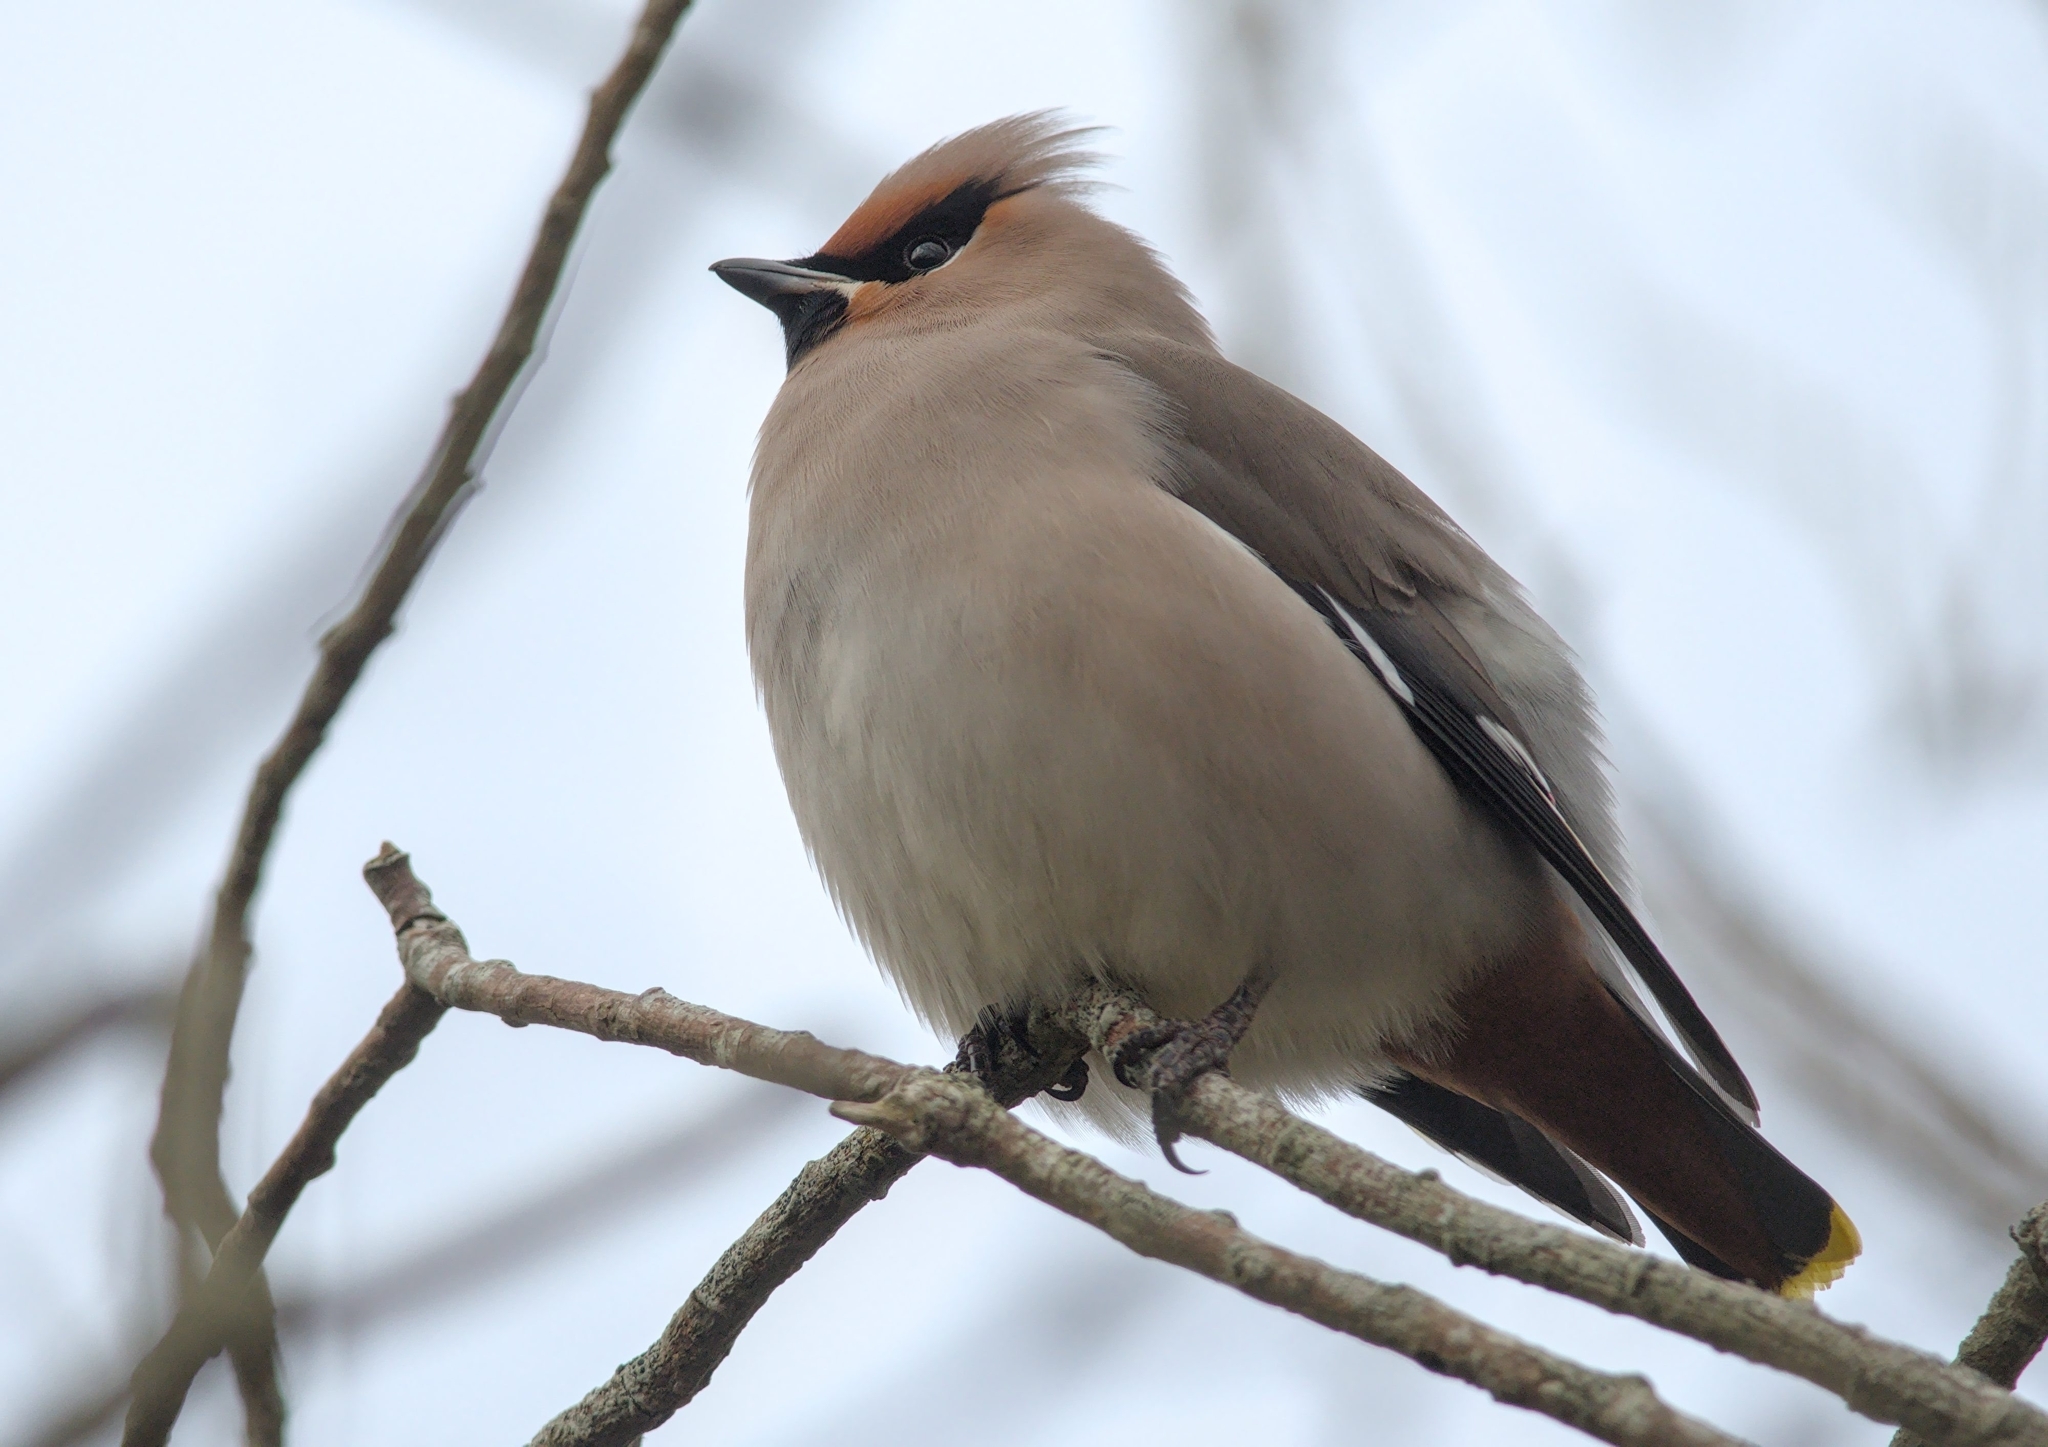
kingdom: Animalia
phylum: Chordata
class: Aves
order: Passeriformes
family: Bombycillidae
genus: Bombycilla
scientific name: Bombycilla garrulus
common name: Bohemian waxwing
